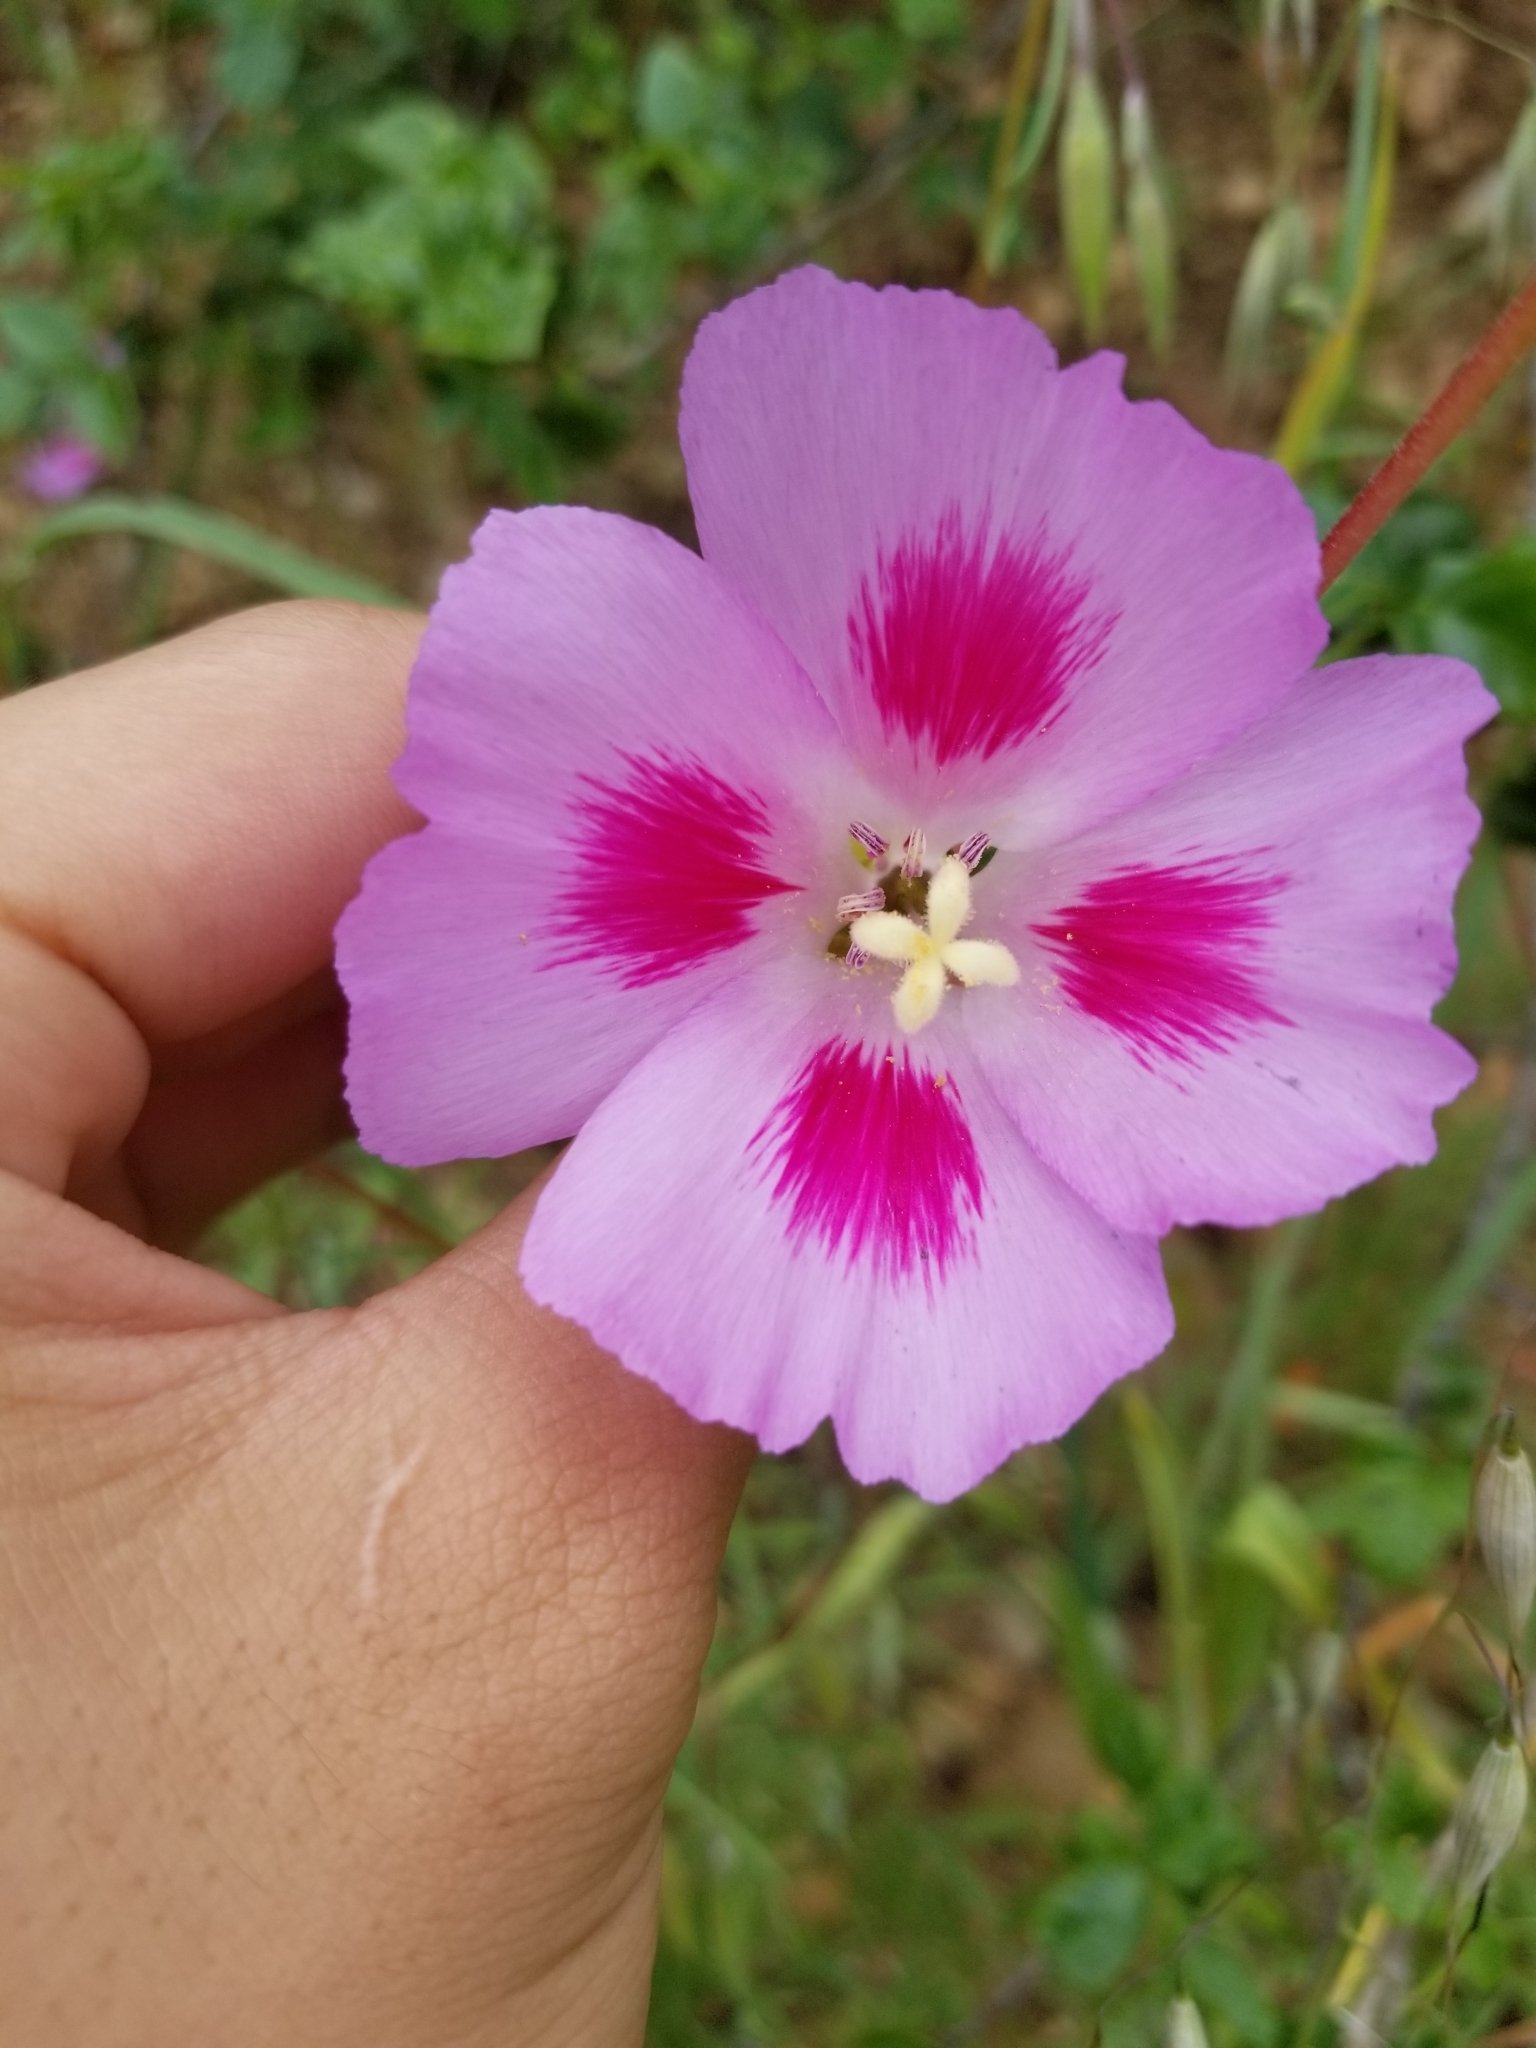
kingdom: Plantae
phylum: Tracheophyta
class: Magnoliopsida
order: Myrtales
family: Onagraceae
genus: Clarkia
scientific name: Clarkia gracilis
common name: Graceful clarkia
